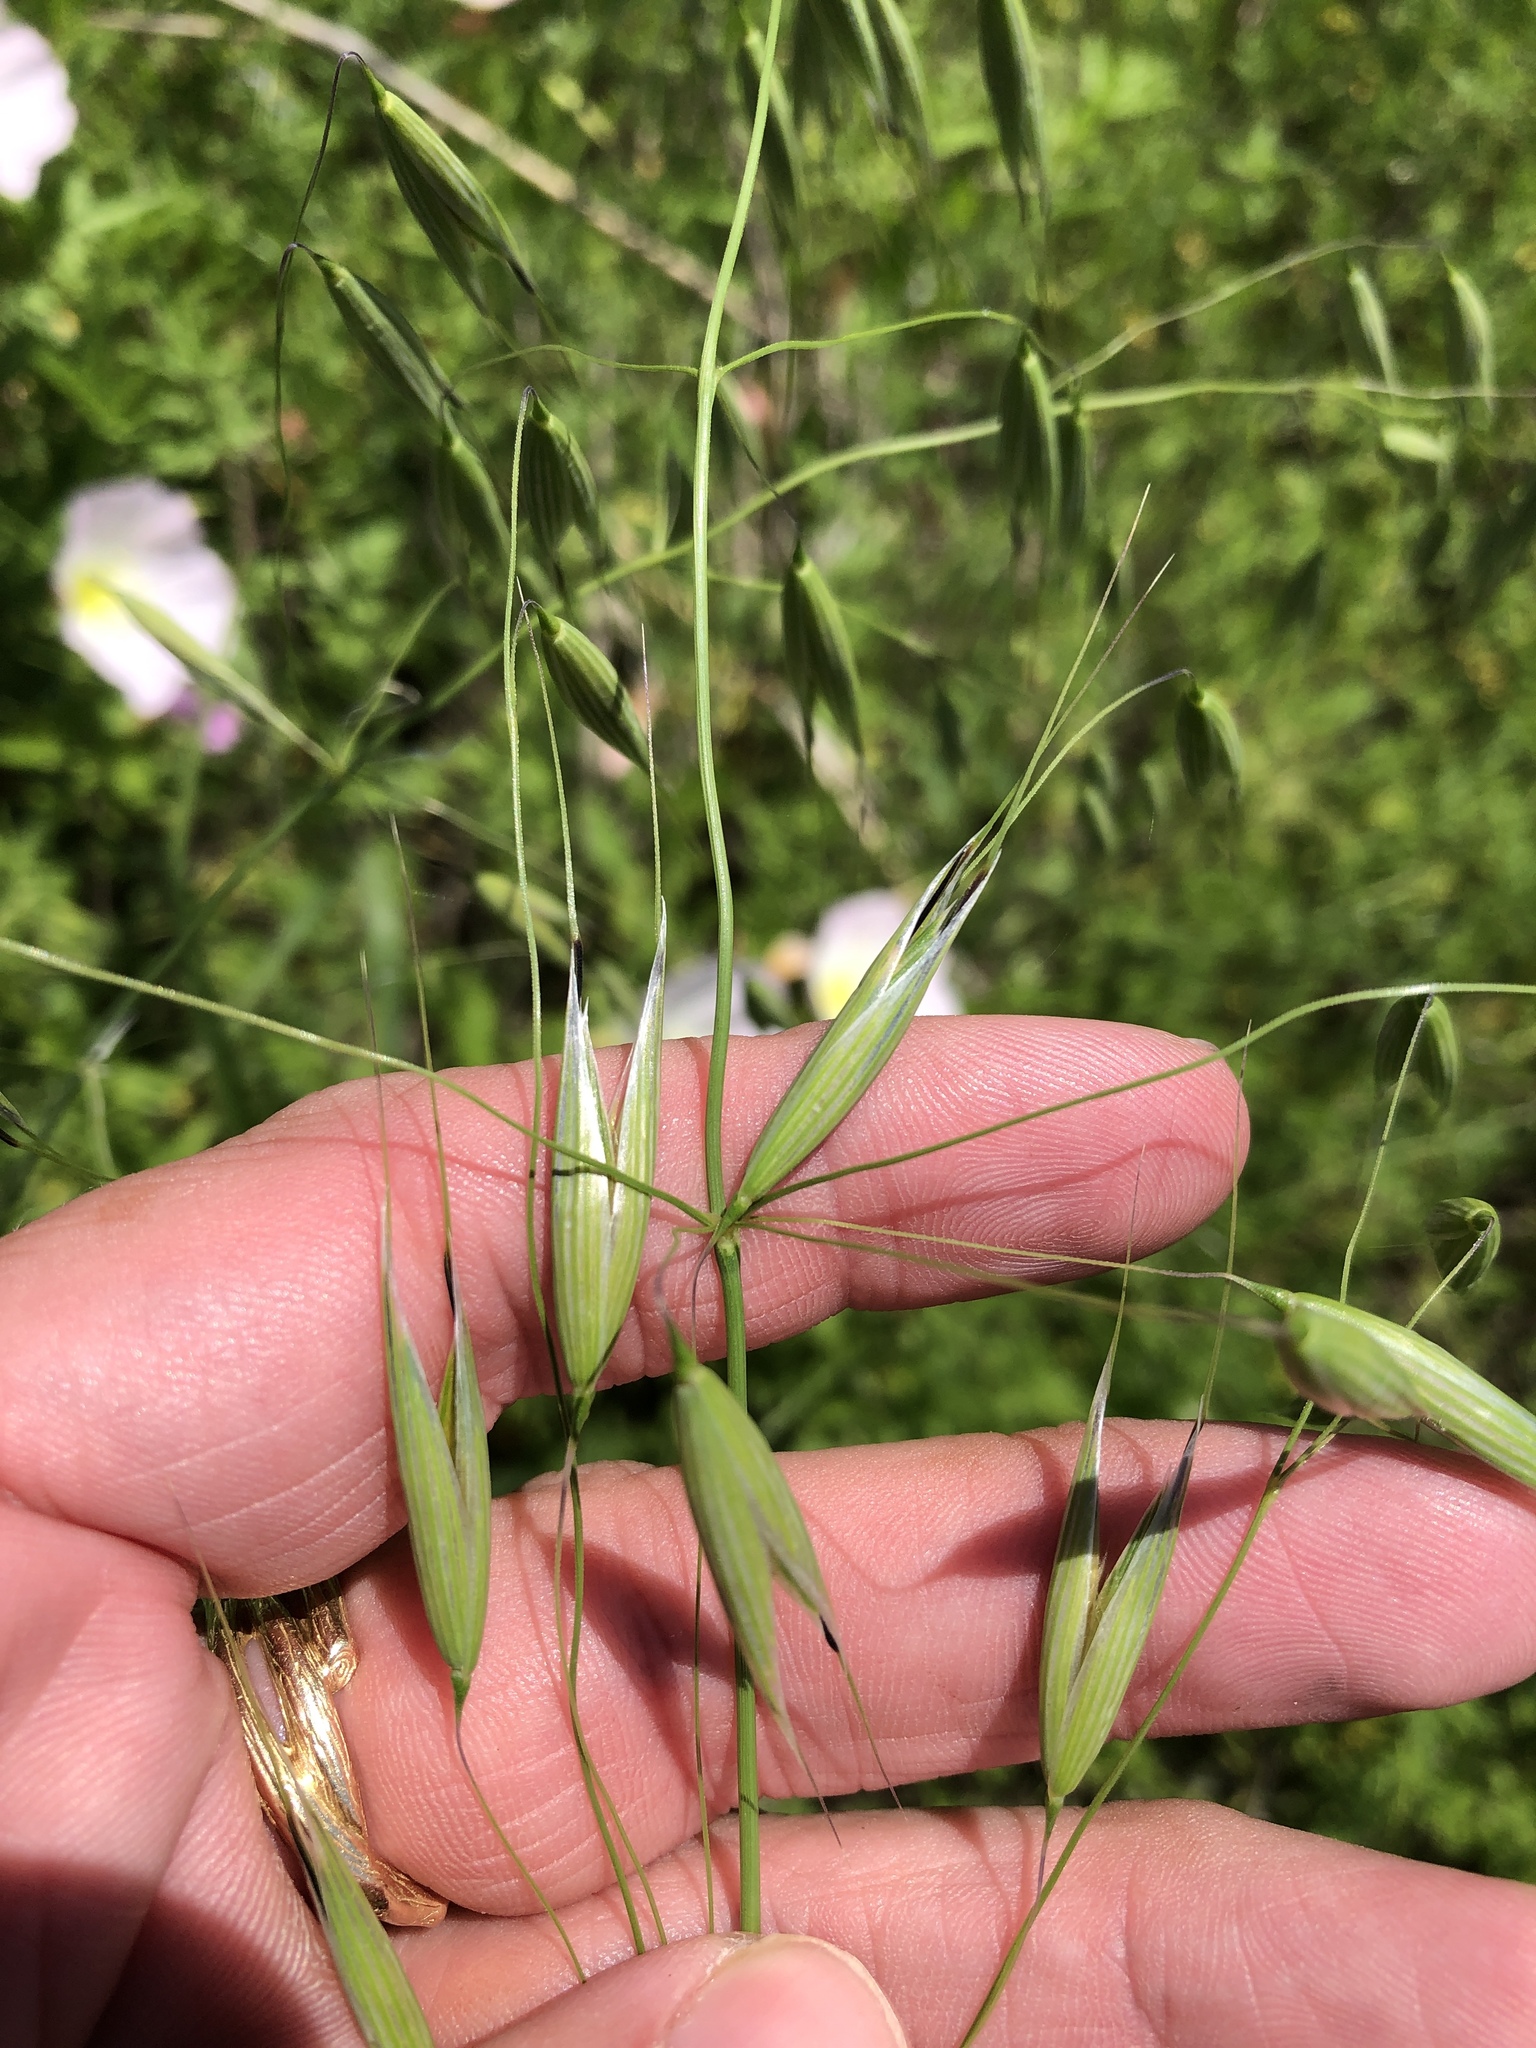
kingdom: Plantae
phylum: Tracheophyta
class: Liliopsida
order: Poales
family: Poaceae
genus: Avena
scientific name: Avena fatua
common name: Wild oat
